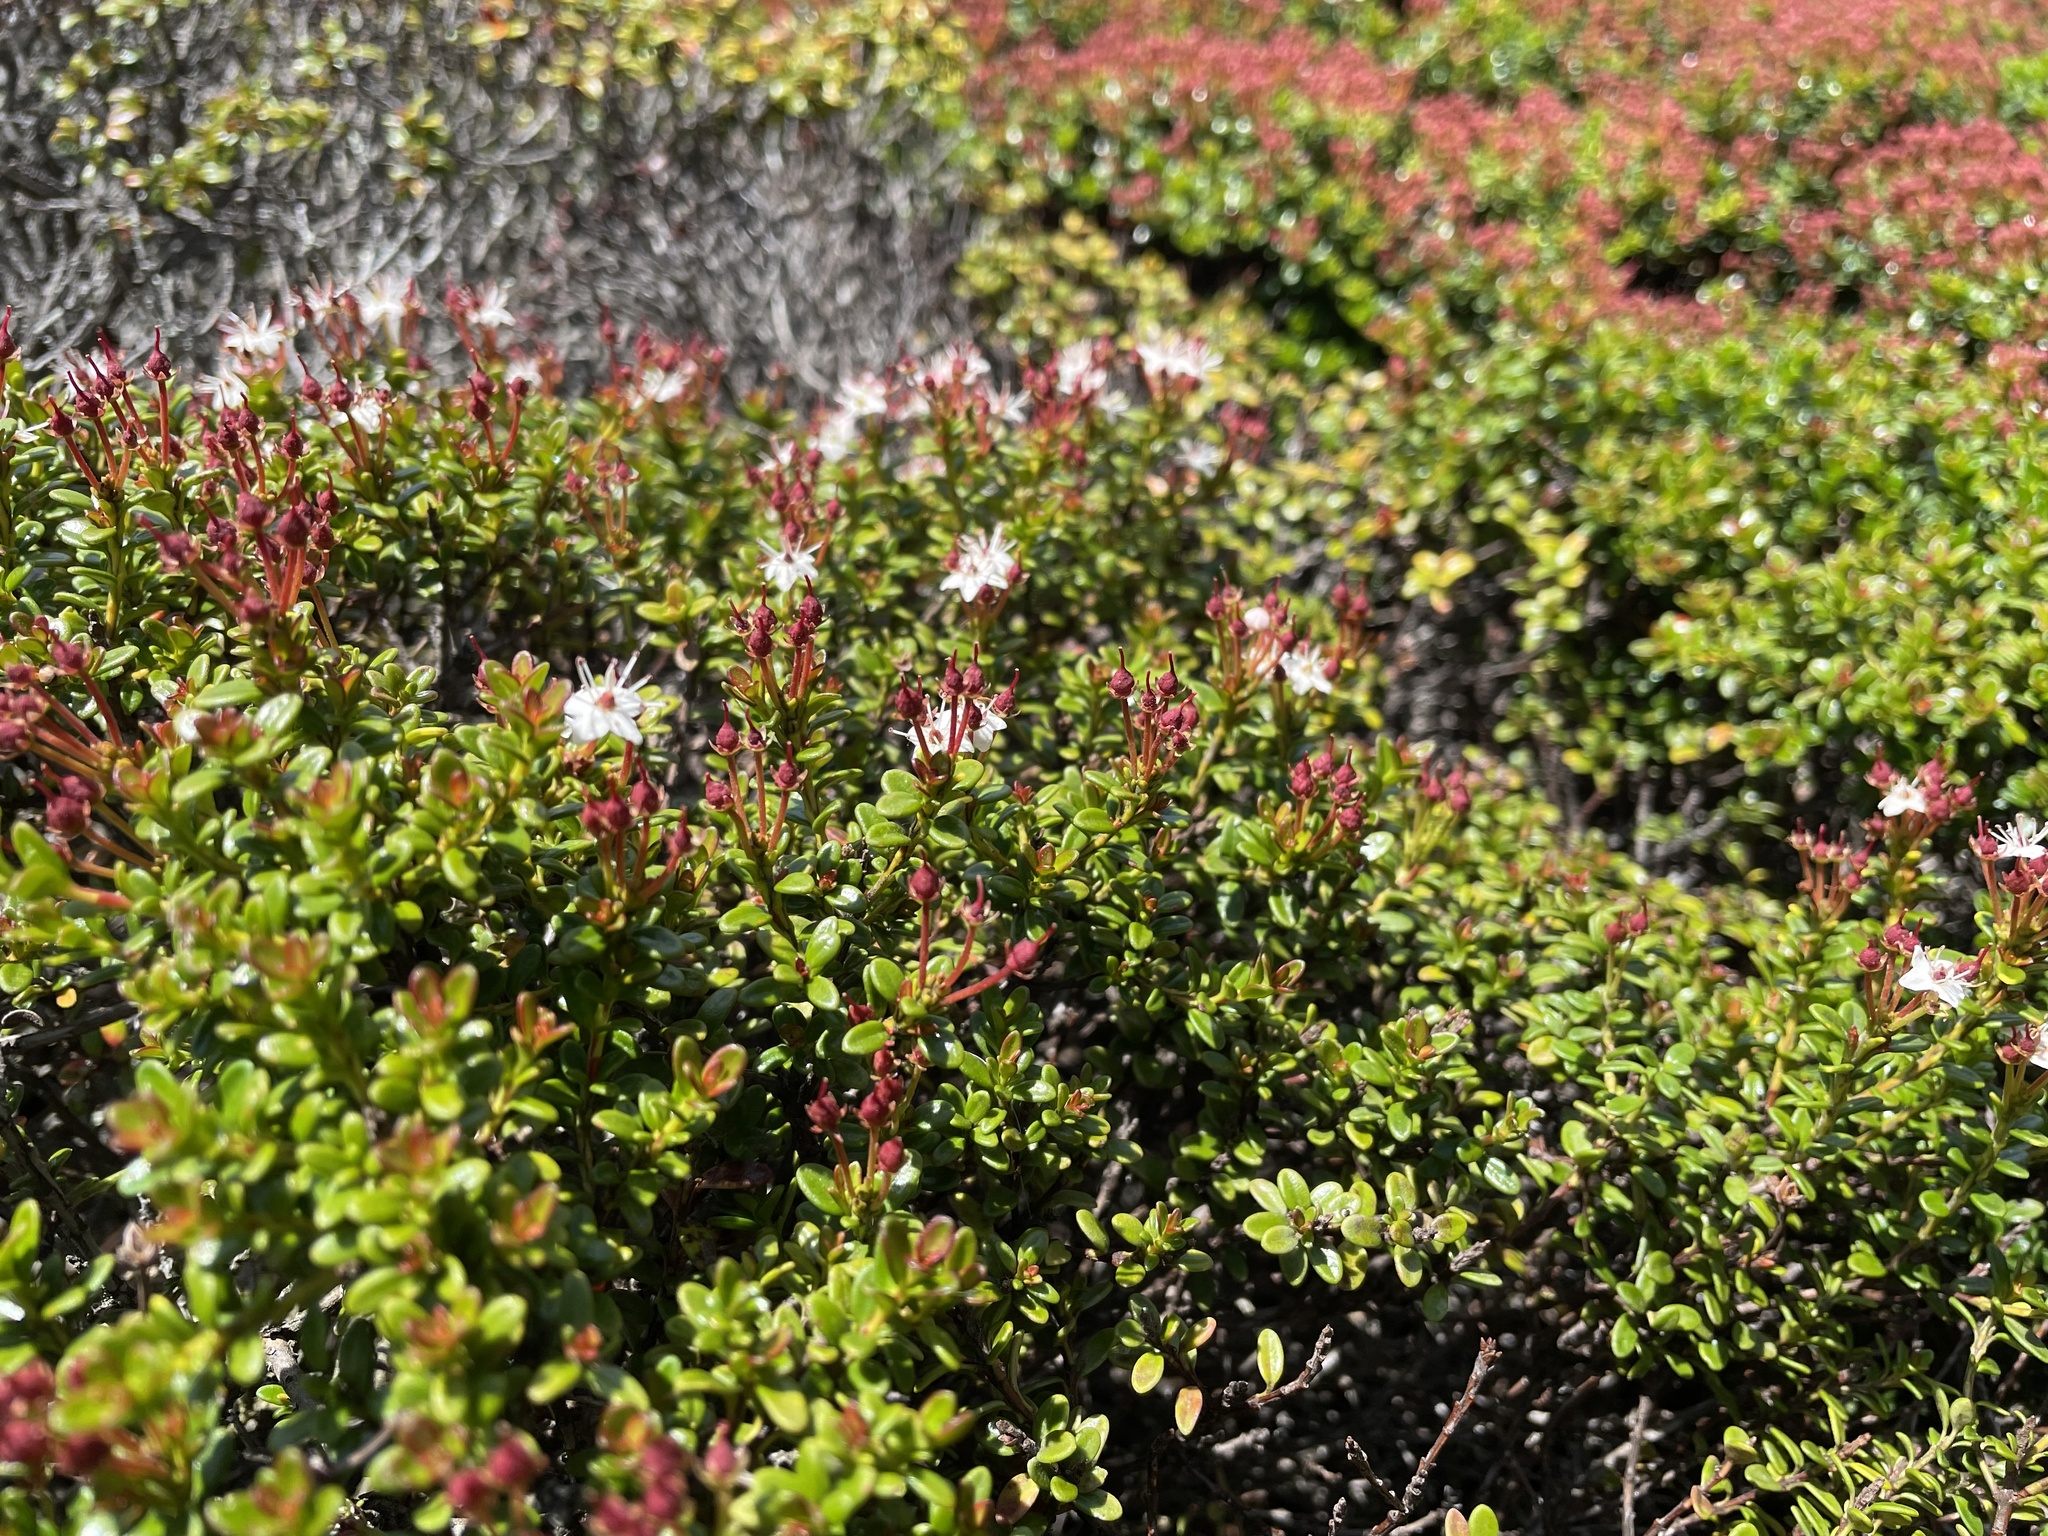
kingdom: Plantae
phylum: Tracheophyta
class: Magnoliopsida
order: Ericales
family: Ericaceae
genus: Kalmia
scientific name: Kalmia buxifolia
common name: Sandmyrtle
